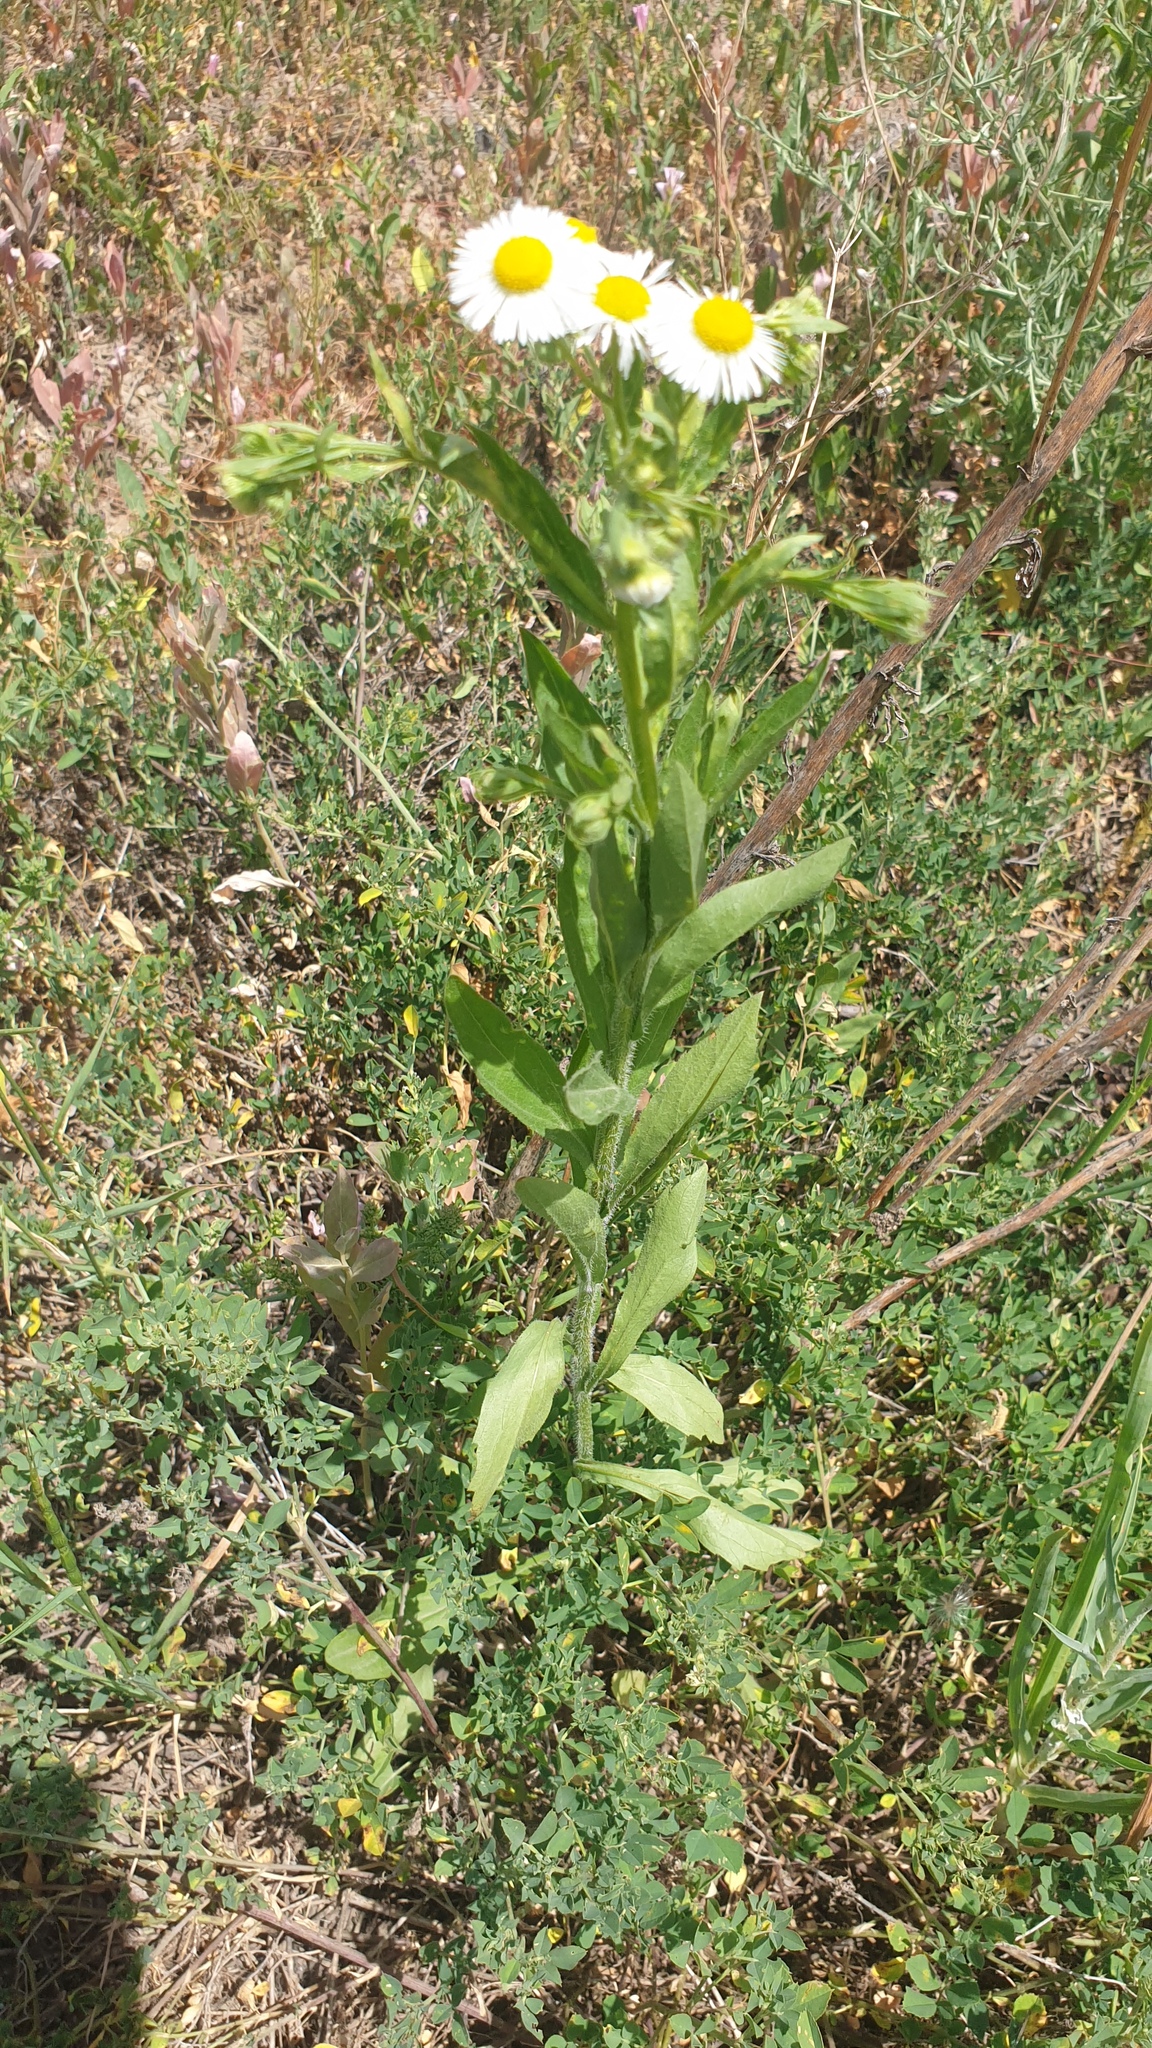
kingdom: Plantae
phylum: Tracheophyta
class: Magnoliopsida
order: Asterales
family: Asteraceae
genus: Erigeron
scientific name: Erigeron strigosus
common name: Common eastern fleabane
